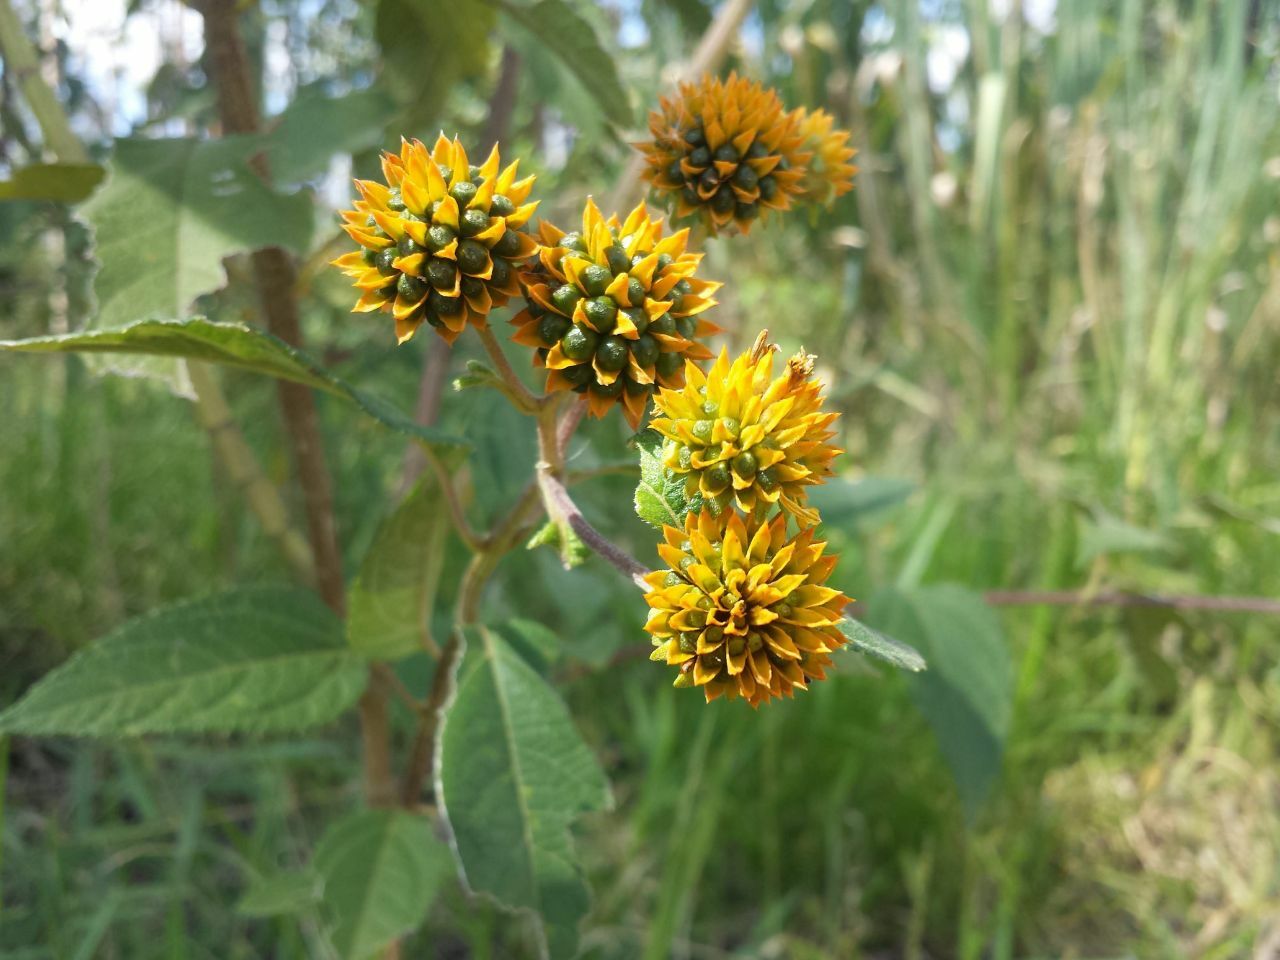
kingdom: Plantae
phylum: Tracheophyta
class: Magnoliopsida
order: Asterales
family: Asteraceae
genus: Tilesia
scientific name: Tilesia baccata
